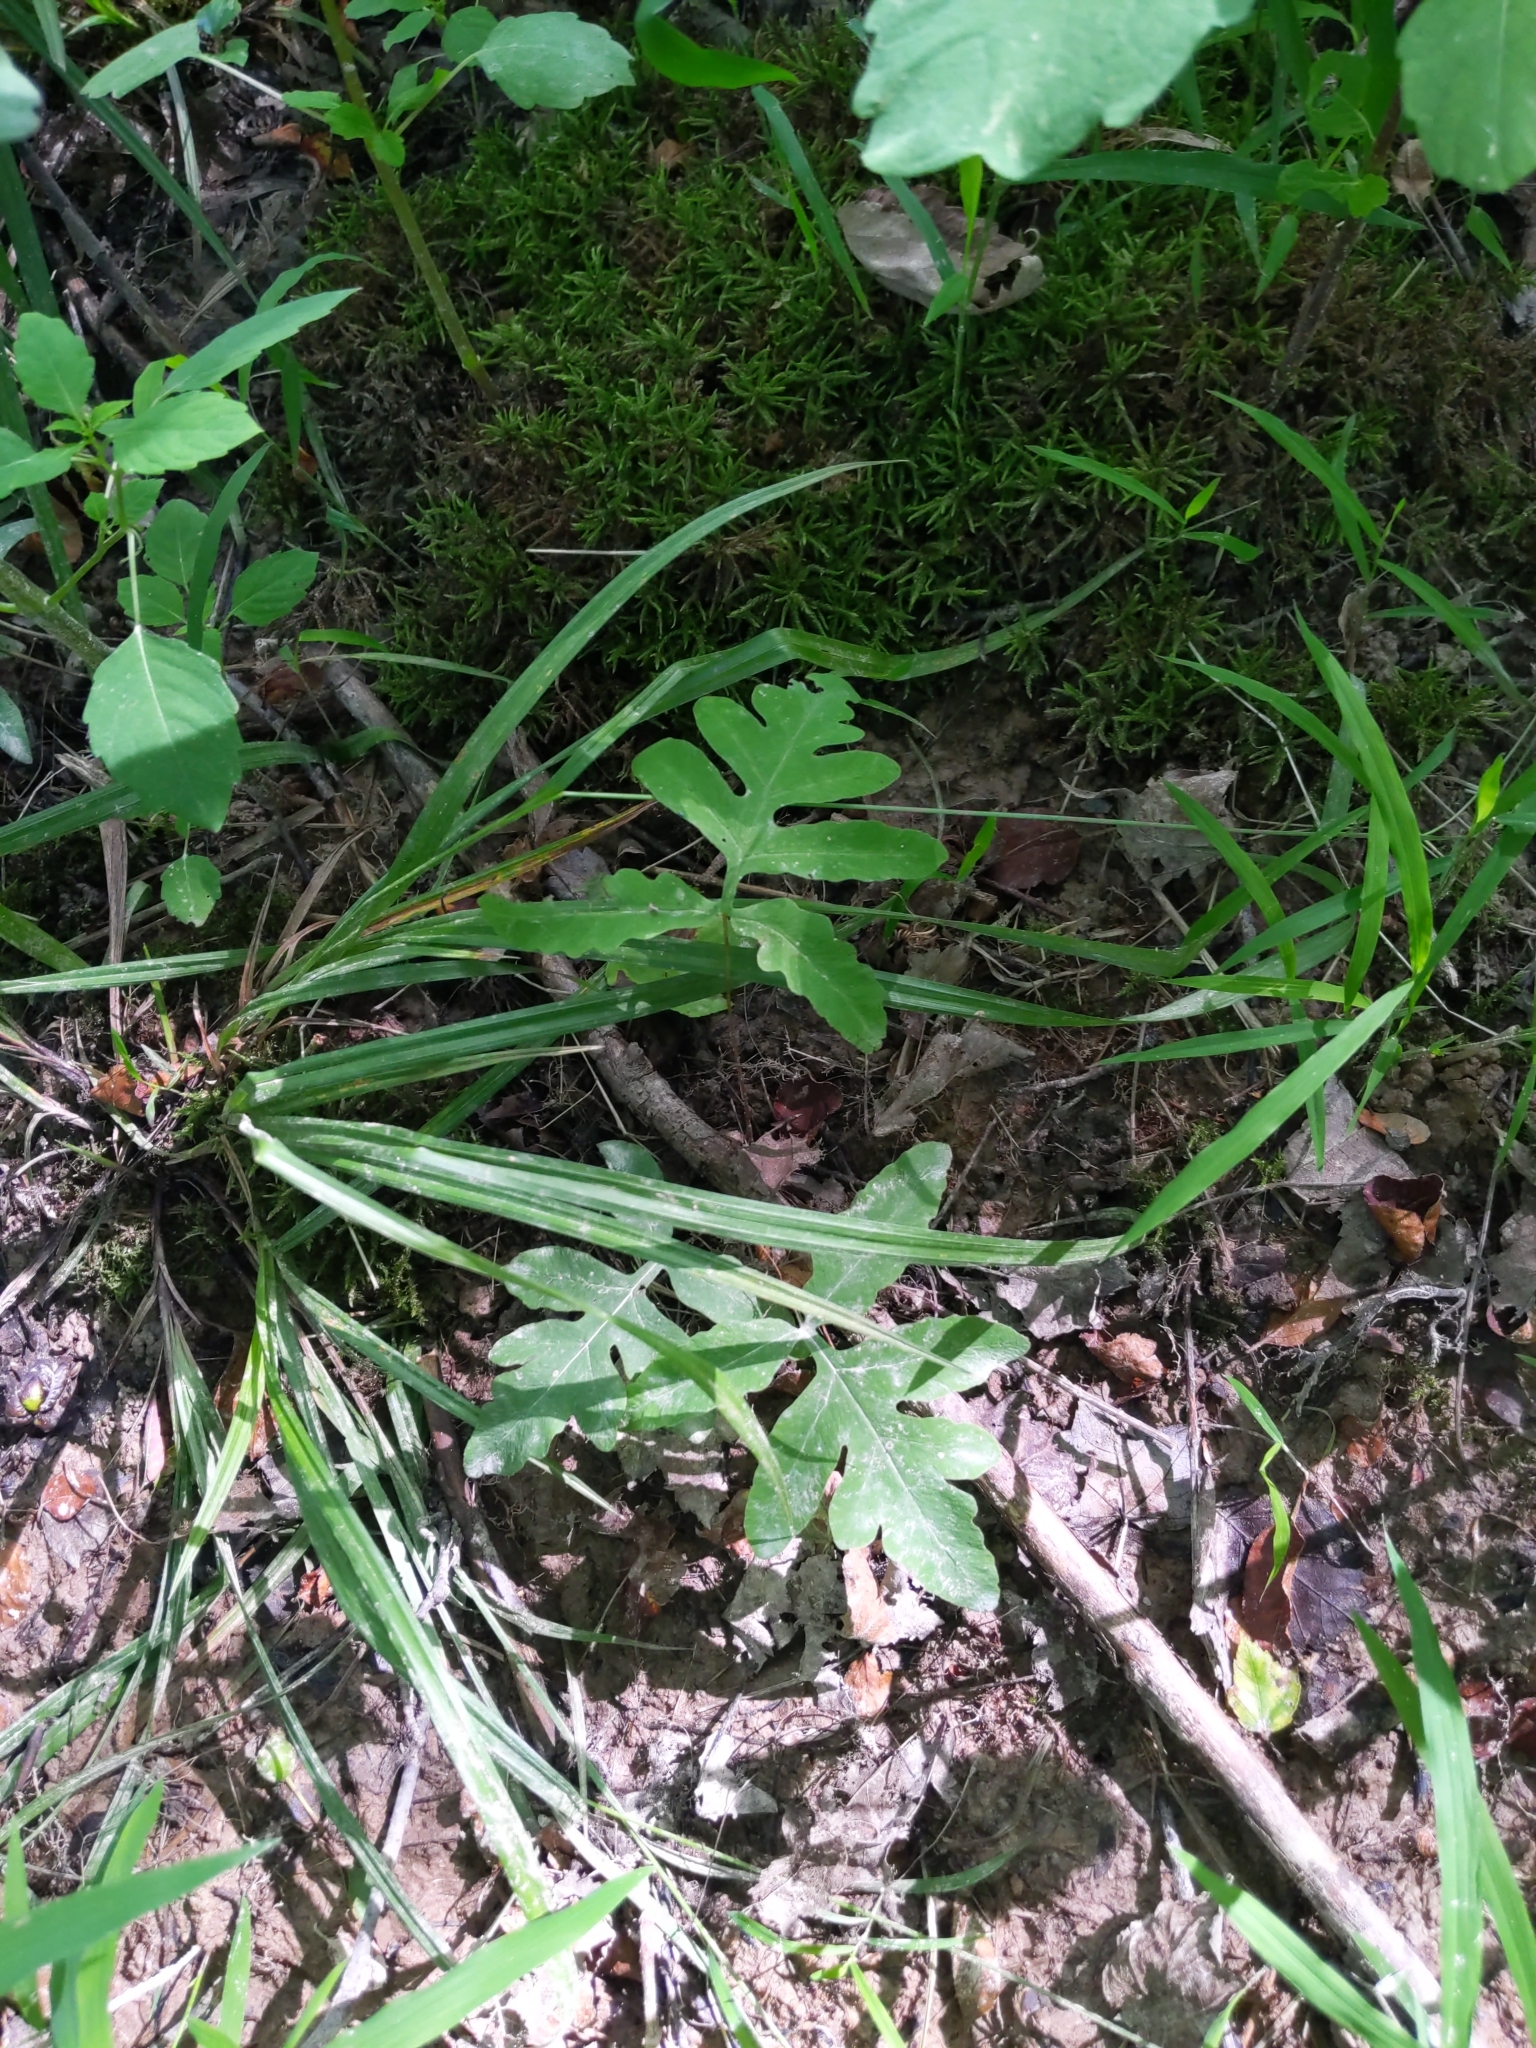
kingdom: Plantae
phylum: Tracheophyta
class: Polypodiopsida
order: Polypodiales
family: Onocleaceae
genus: Onoclea
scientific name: Onoclea sensibilis
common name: Sensitive fern
